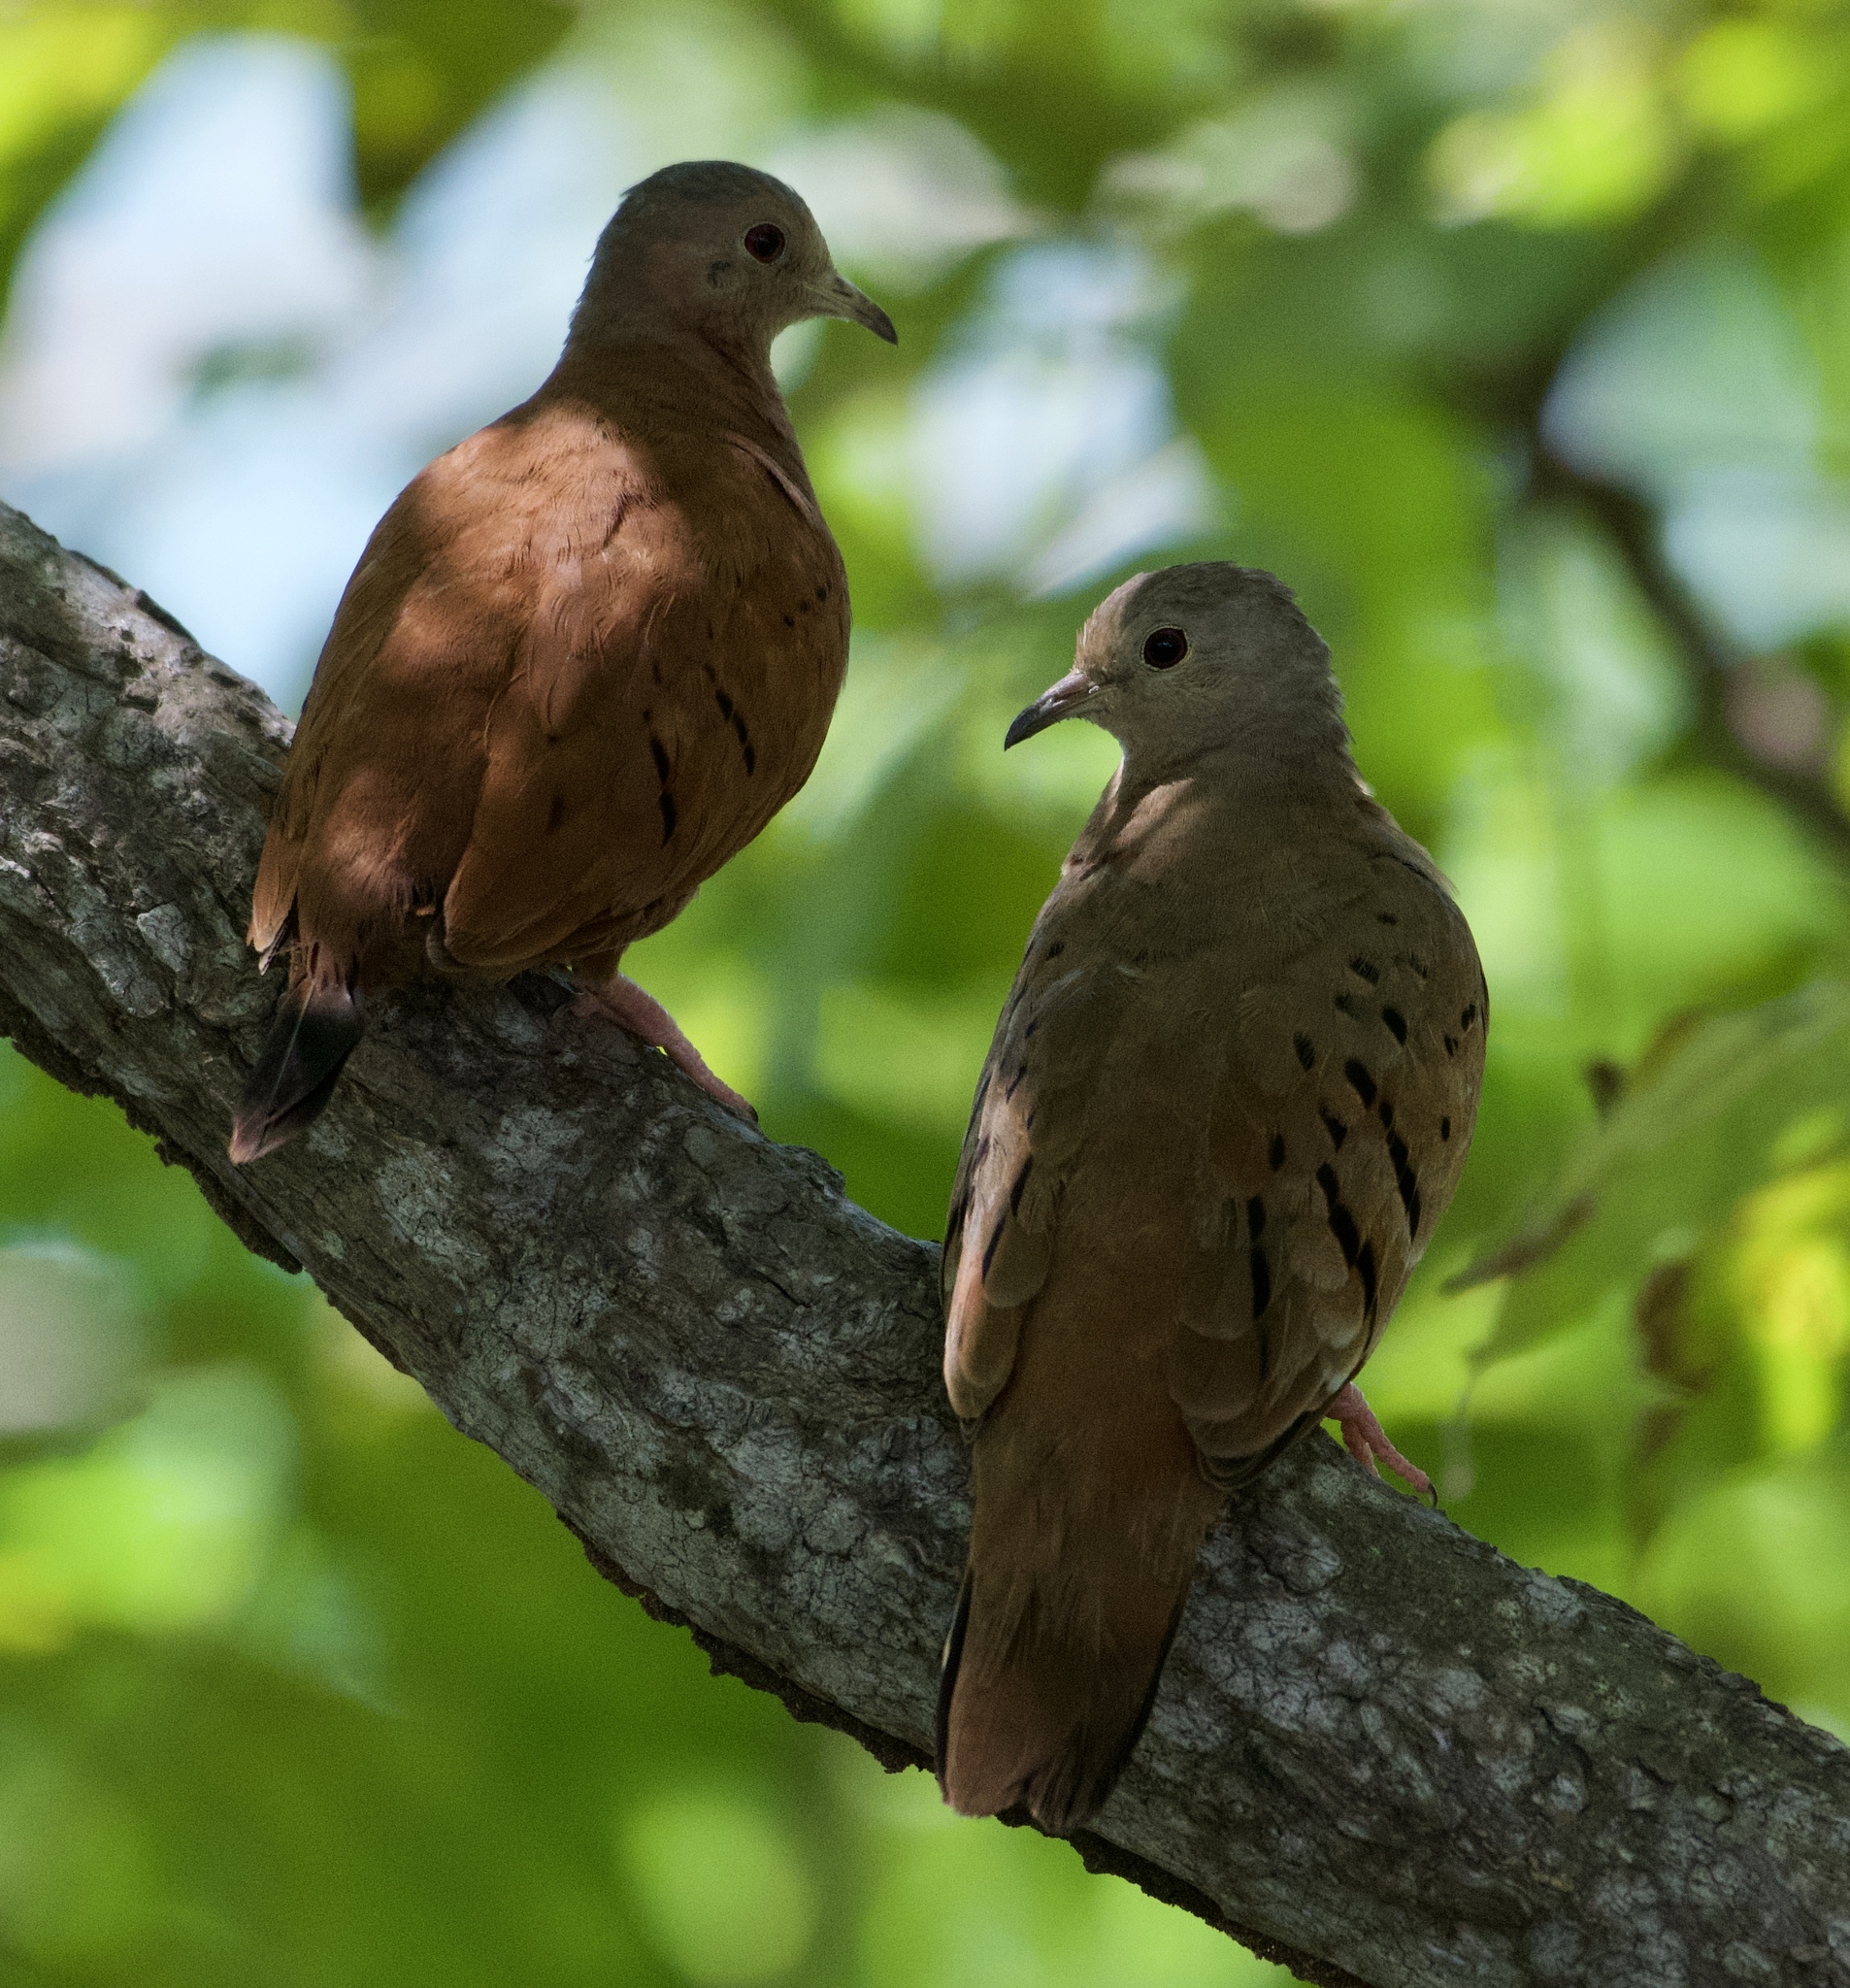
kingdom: Animalia
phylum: Chordata
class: Aves
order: Columbiformes
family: Columbidae
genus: Columbina
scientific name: Columbina talpacoti
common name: Ruddy ground dove
